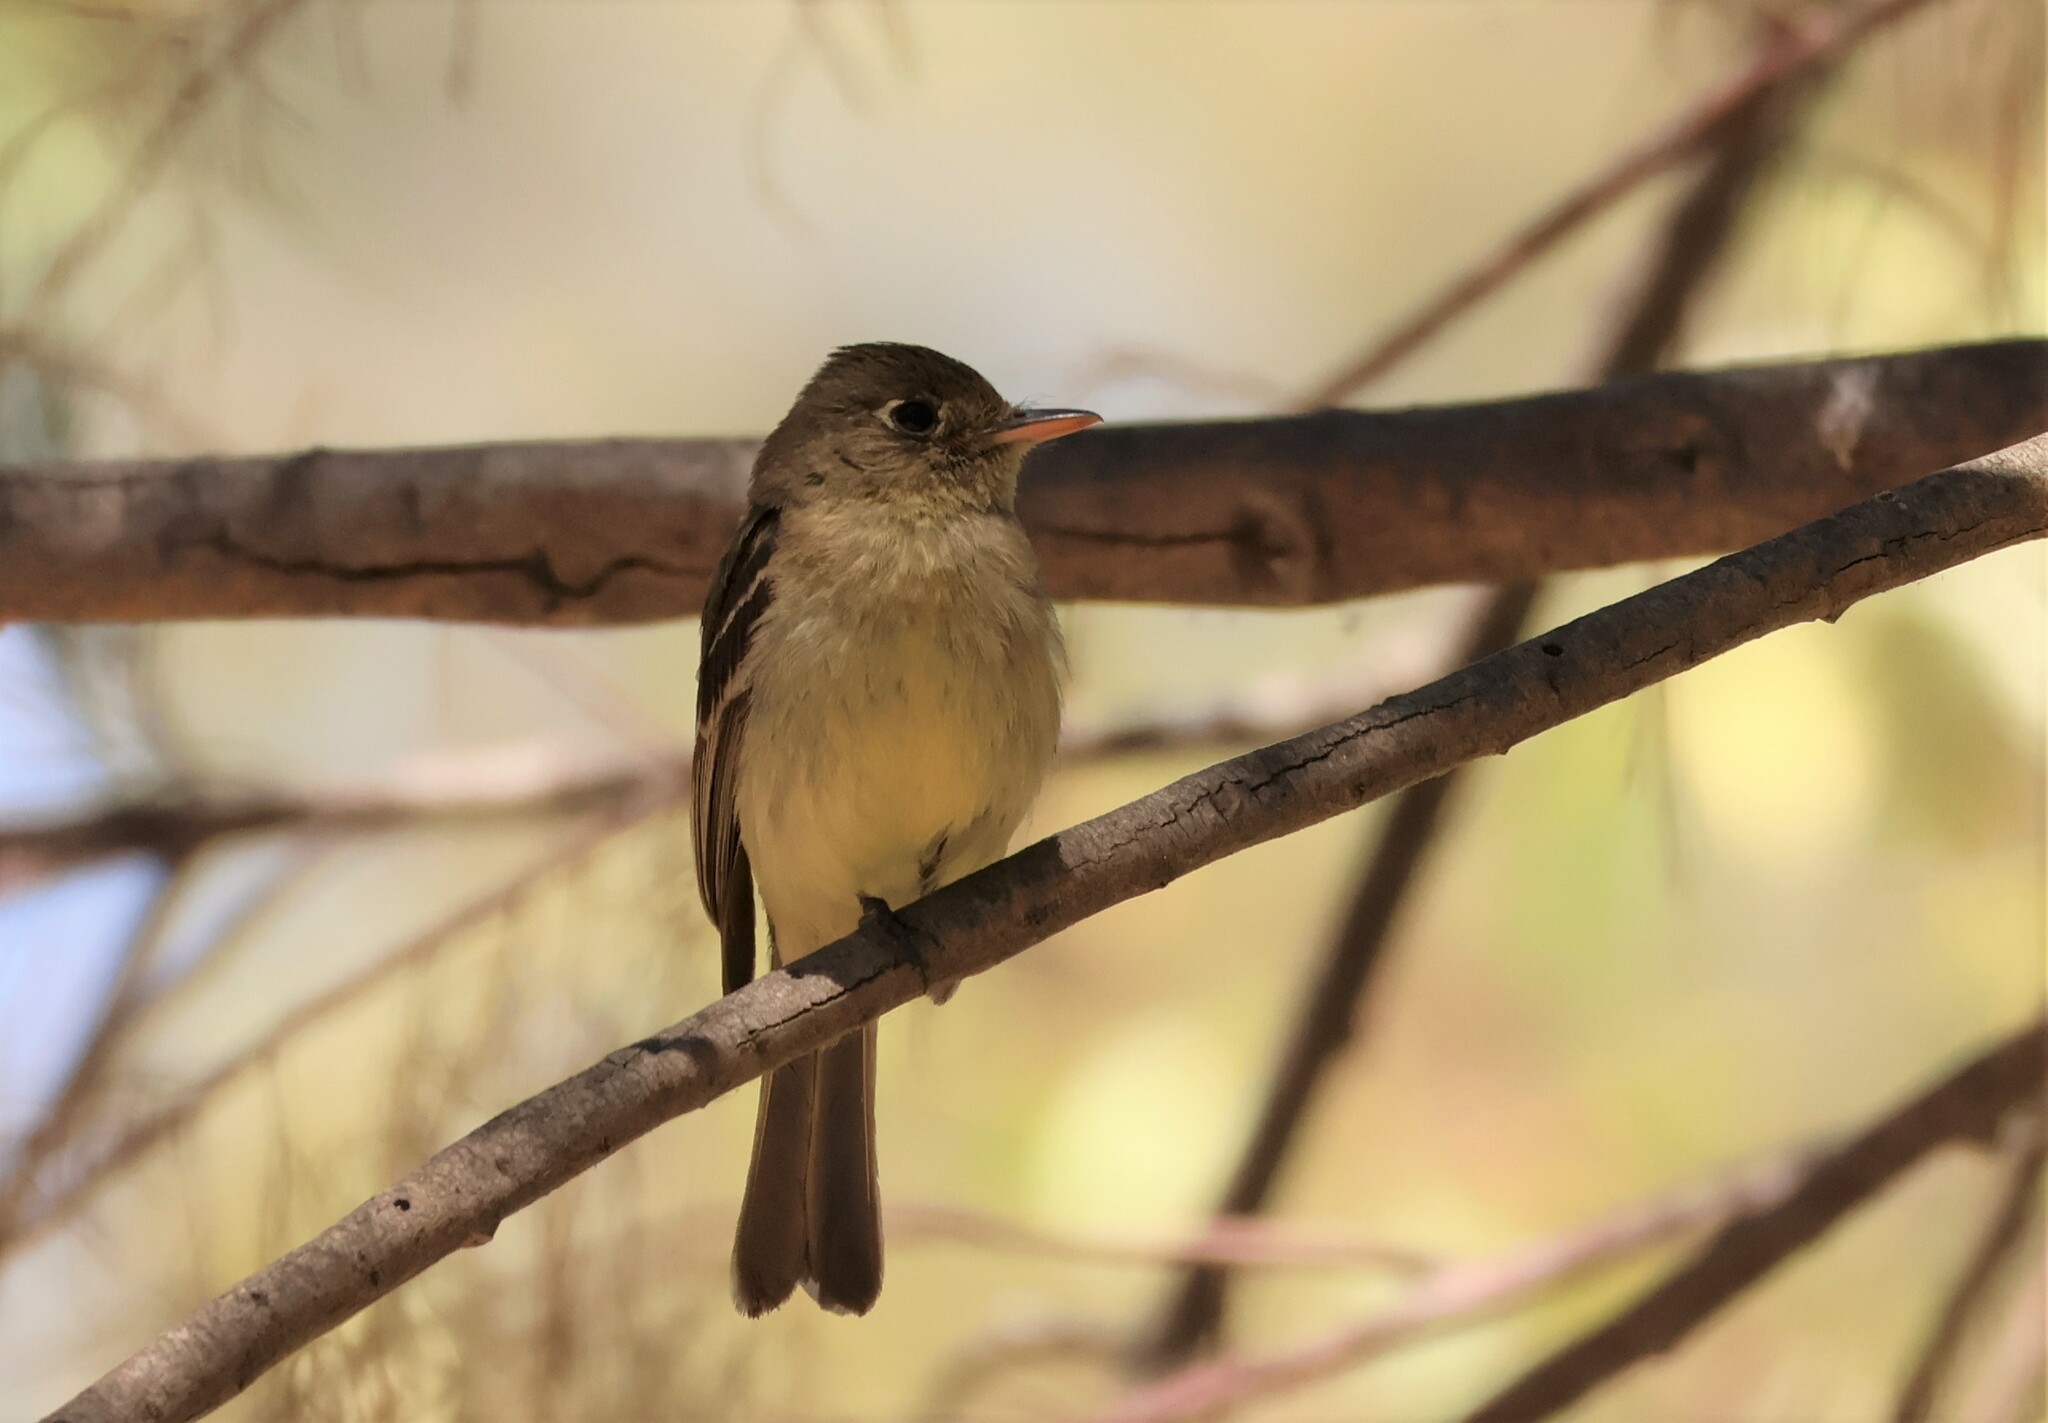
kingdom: Animalia
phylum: Chordata
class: Aves
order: Passeriformes
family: Tyrannidae
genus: Empidonax
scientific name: Empidonax difficilis
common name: Pacific-slope flycatcher
